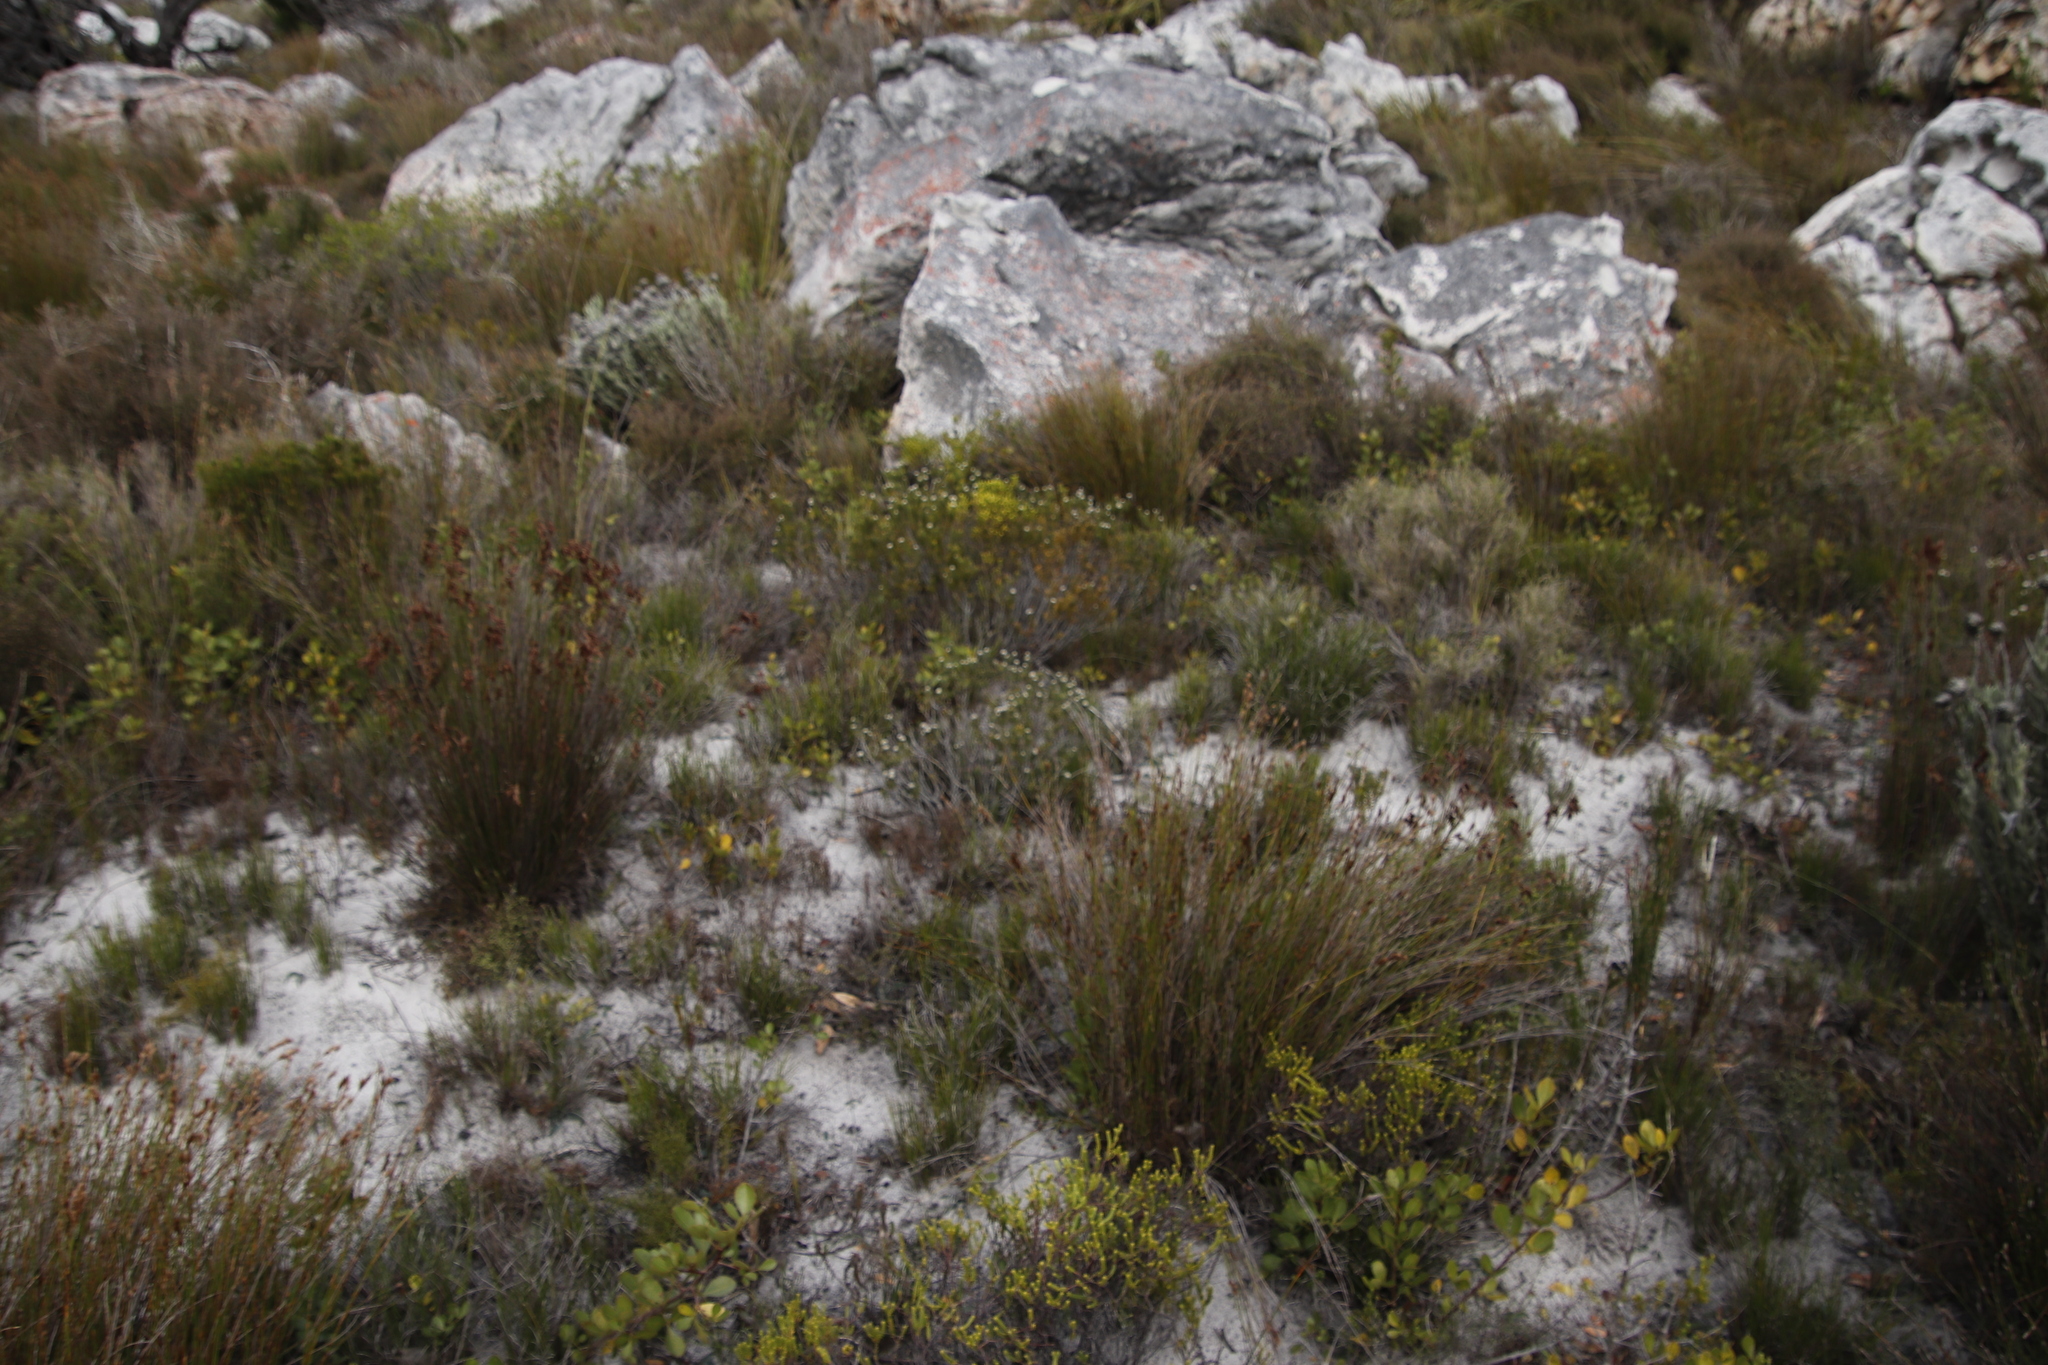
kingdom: Plantae
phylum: Tracheophyta
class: Magnoliopsida
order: Rosales
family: Rhamnaceae
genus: Trichocephalus
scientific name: Trichocephalus stipularis
